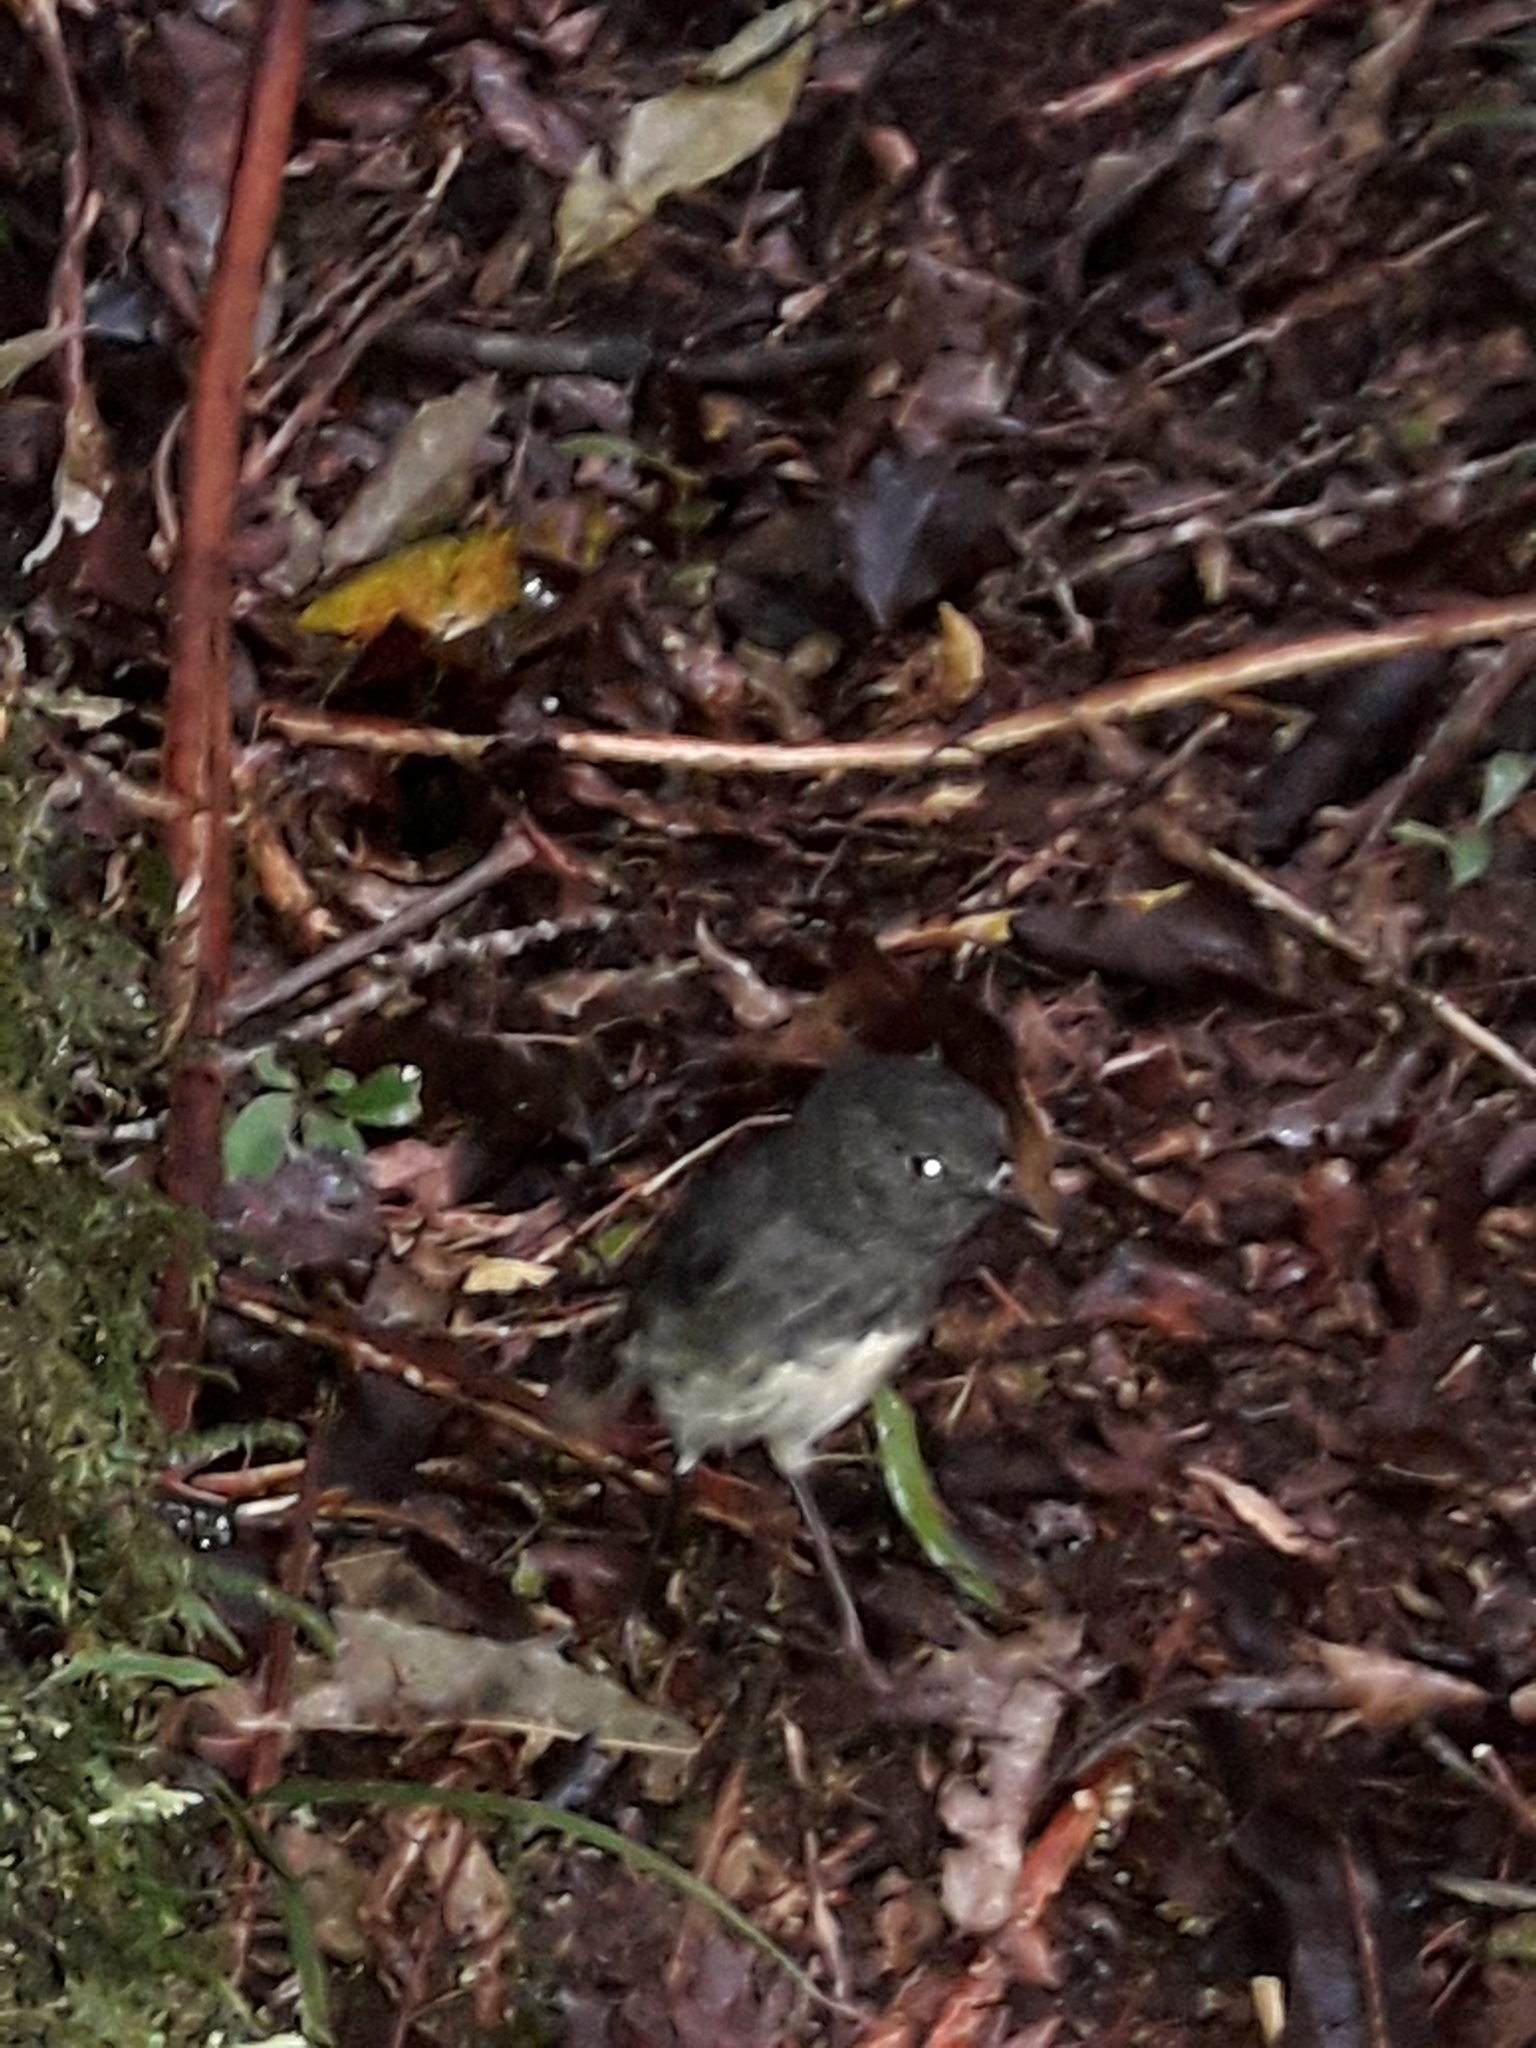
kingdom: Animalia
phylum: Chordata
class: Aves
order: Passeriformes
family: Petroicidae
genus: Petroica
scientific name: Petroica australis
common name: New zealand robin
